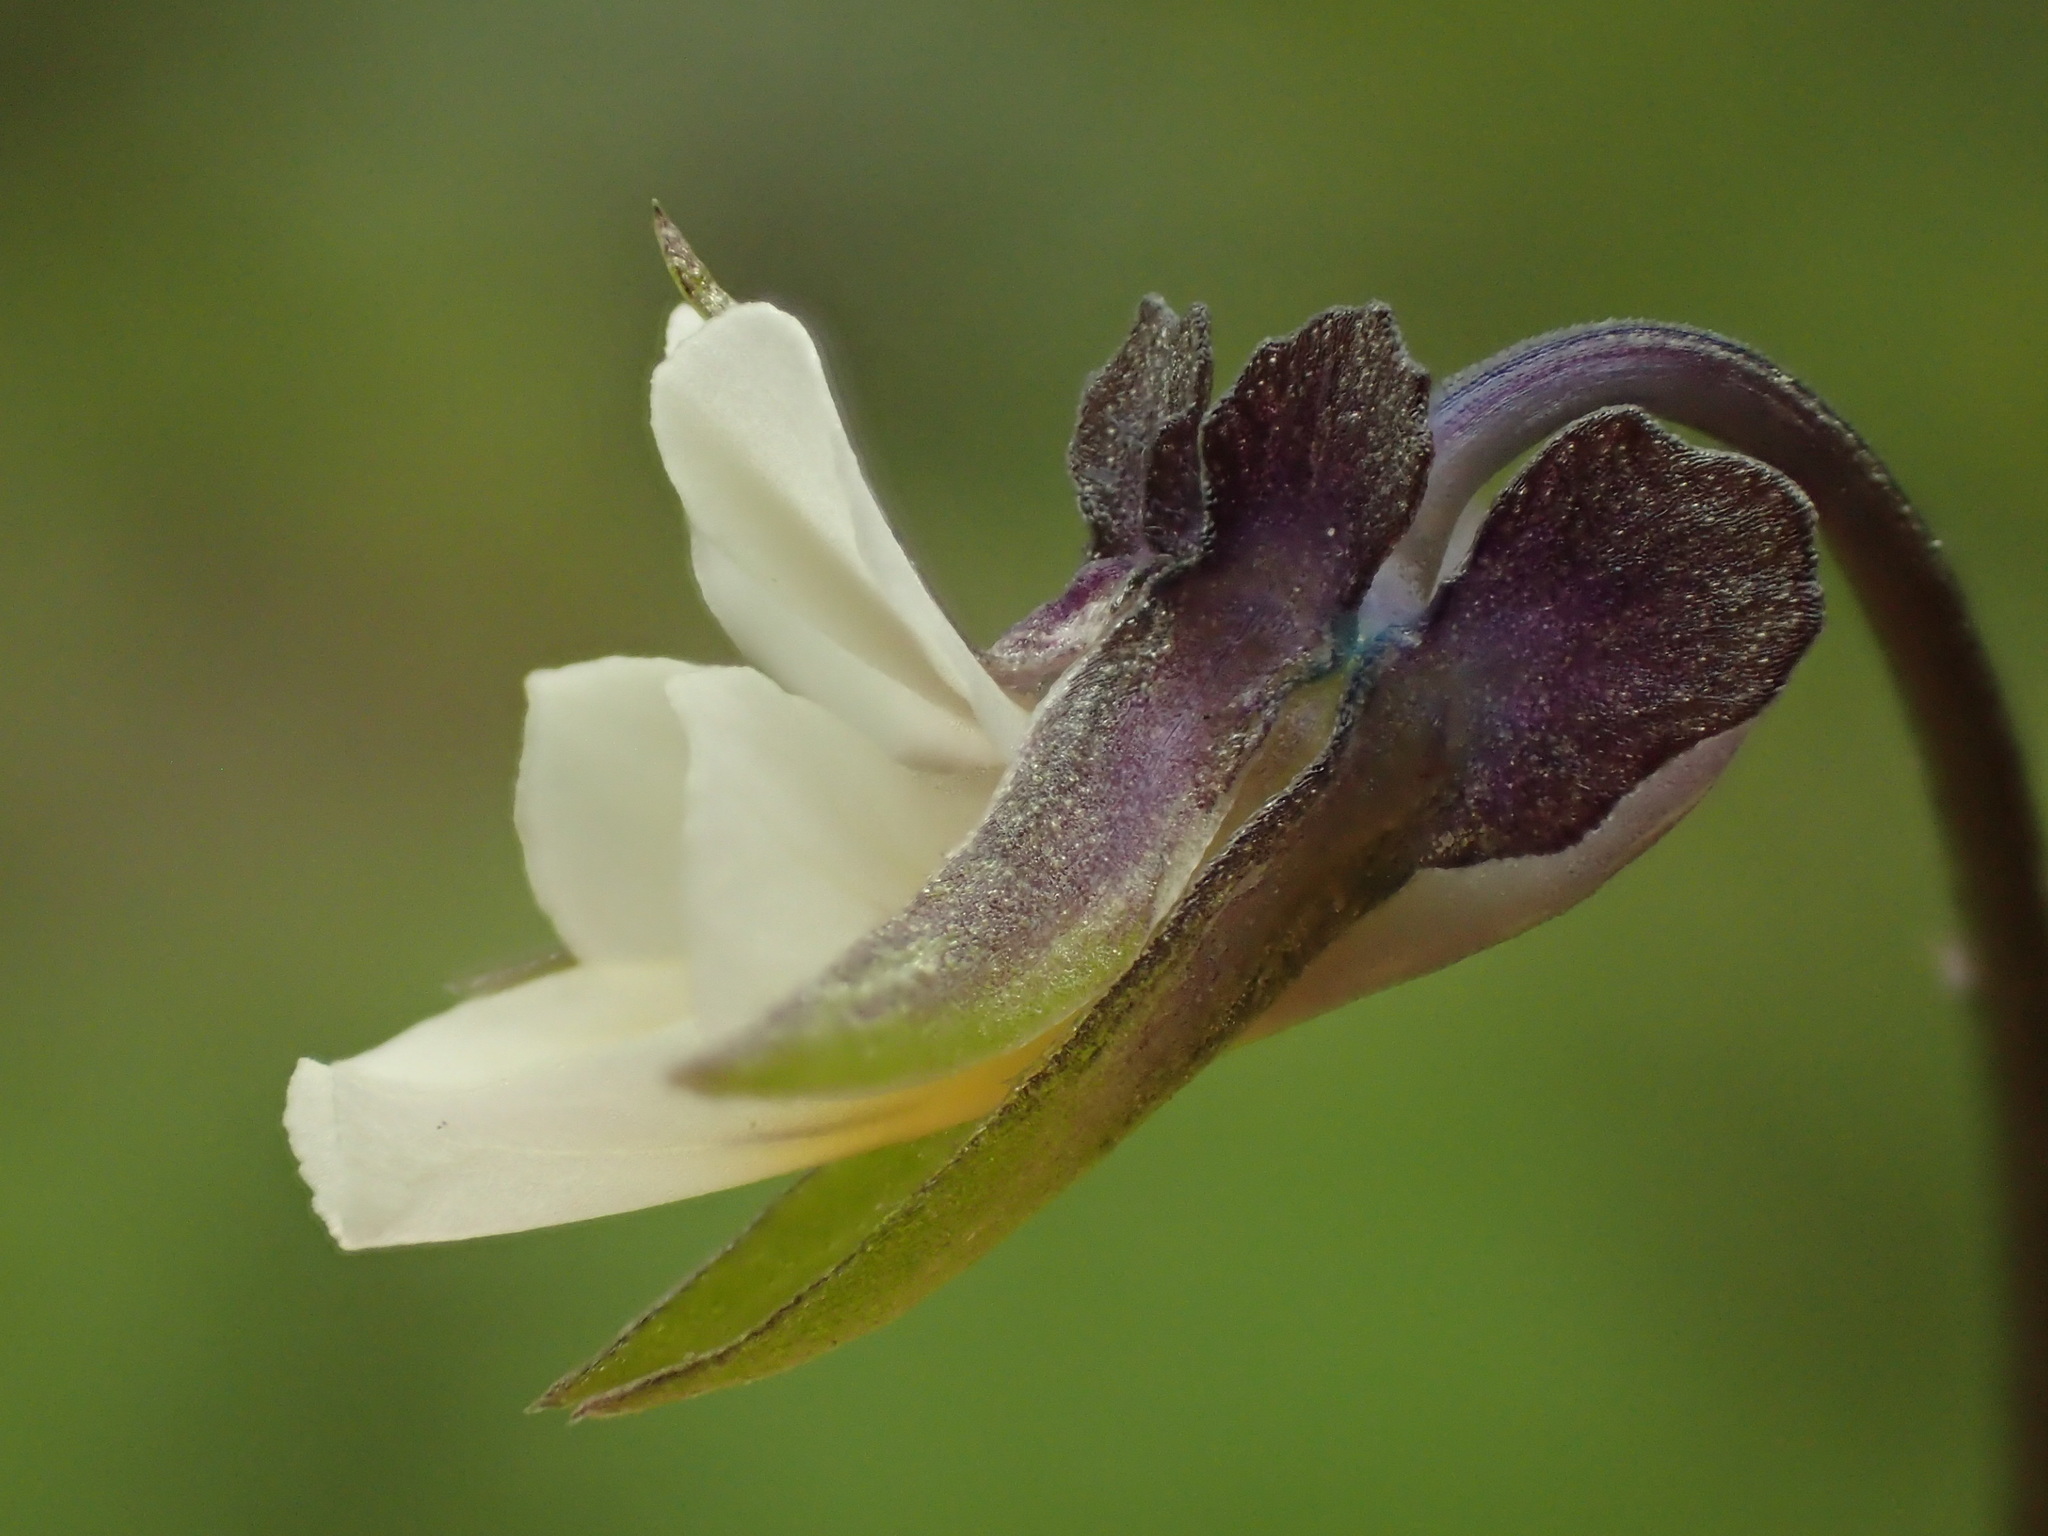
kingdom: Plantae
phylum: Tracheophyta
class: Magnoliopsida
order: Malpighiales
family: Violaceae
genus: Viola
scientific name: Viola arvensis
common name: Field pansy
